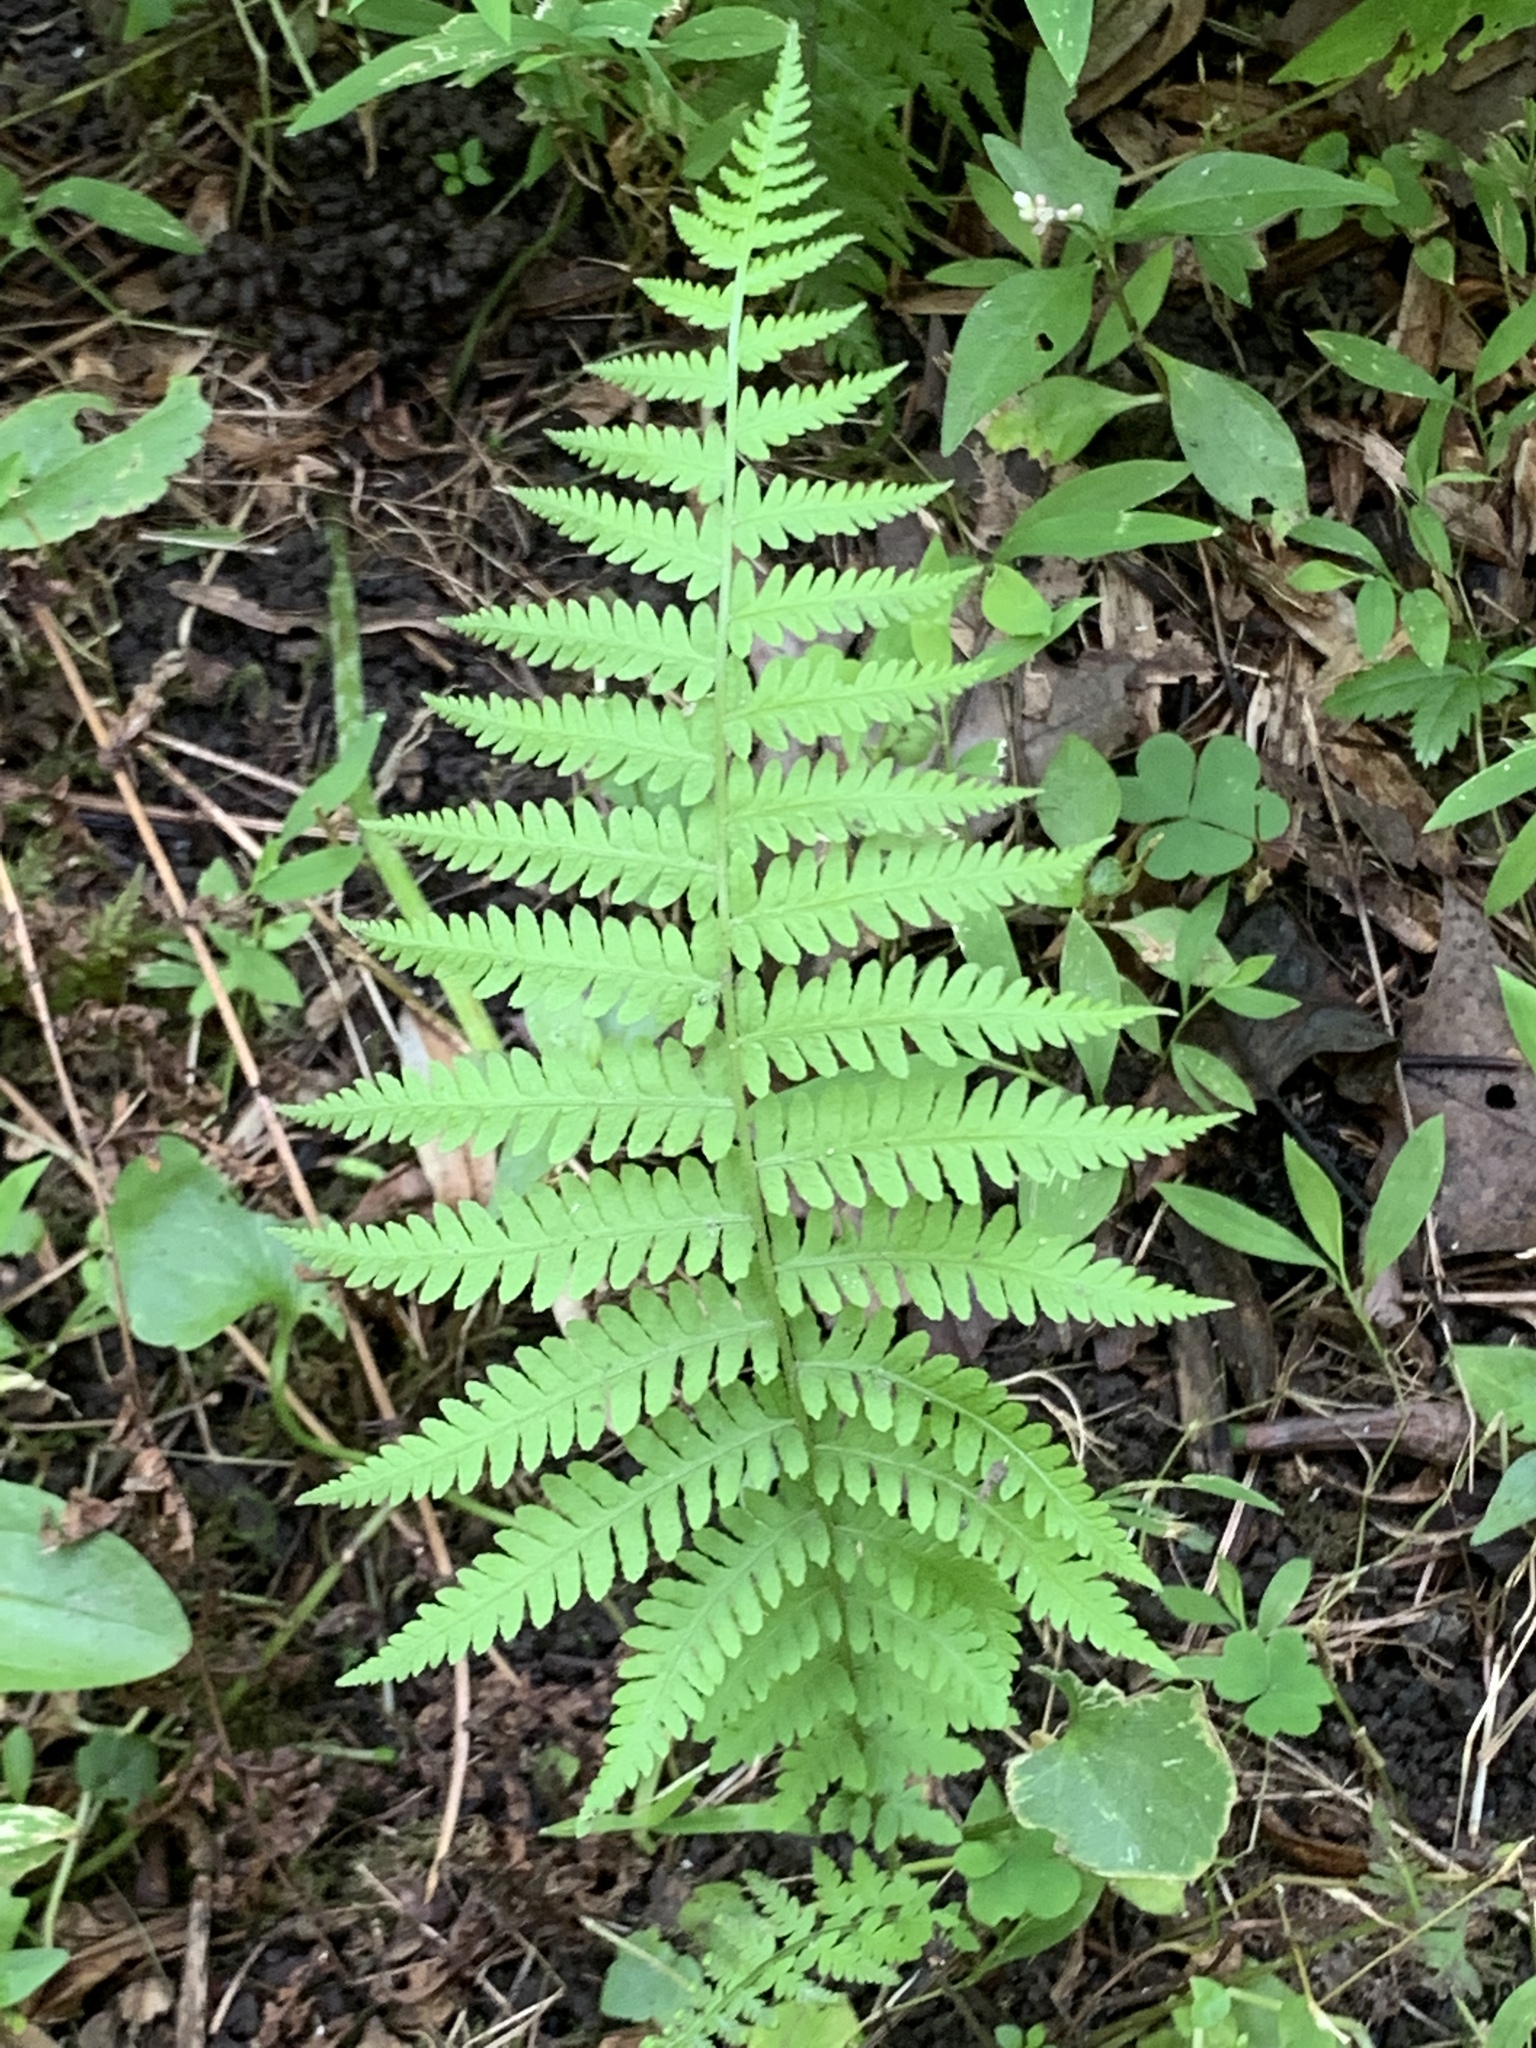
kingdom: Plantae
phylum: Tracheophyta
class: Polypodiopsida
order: Polypodiales
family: Thelypteridaceae
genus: Amauropelta
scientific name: Amauropelta noveboracensis
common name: New york fern
